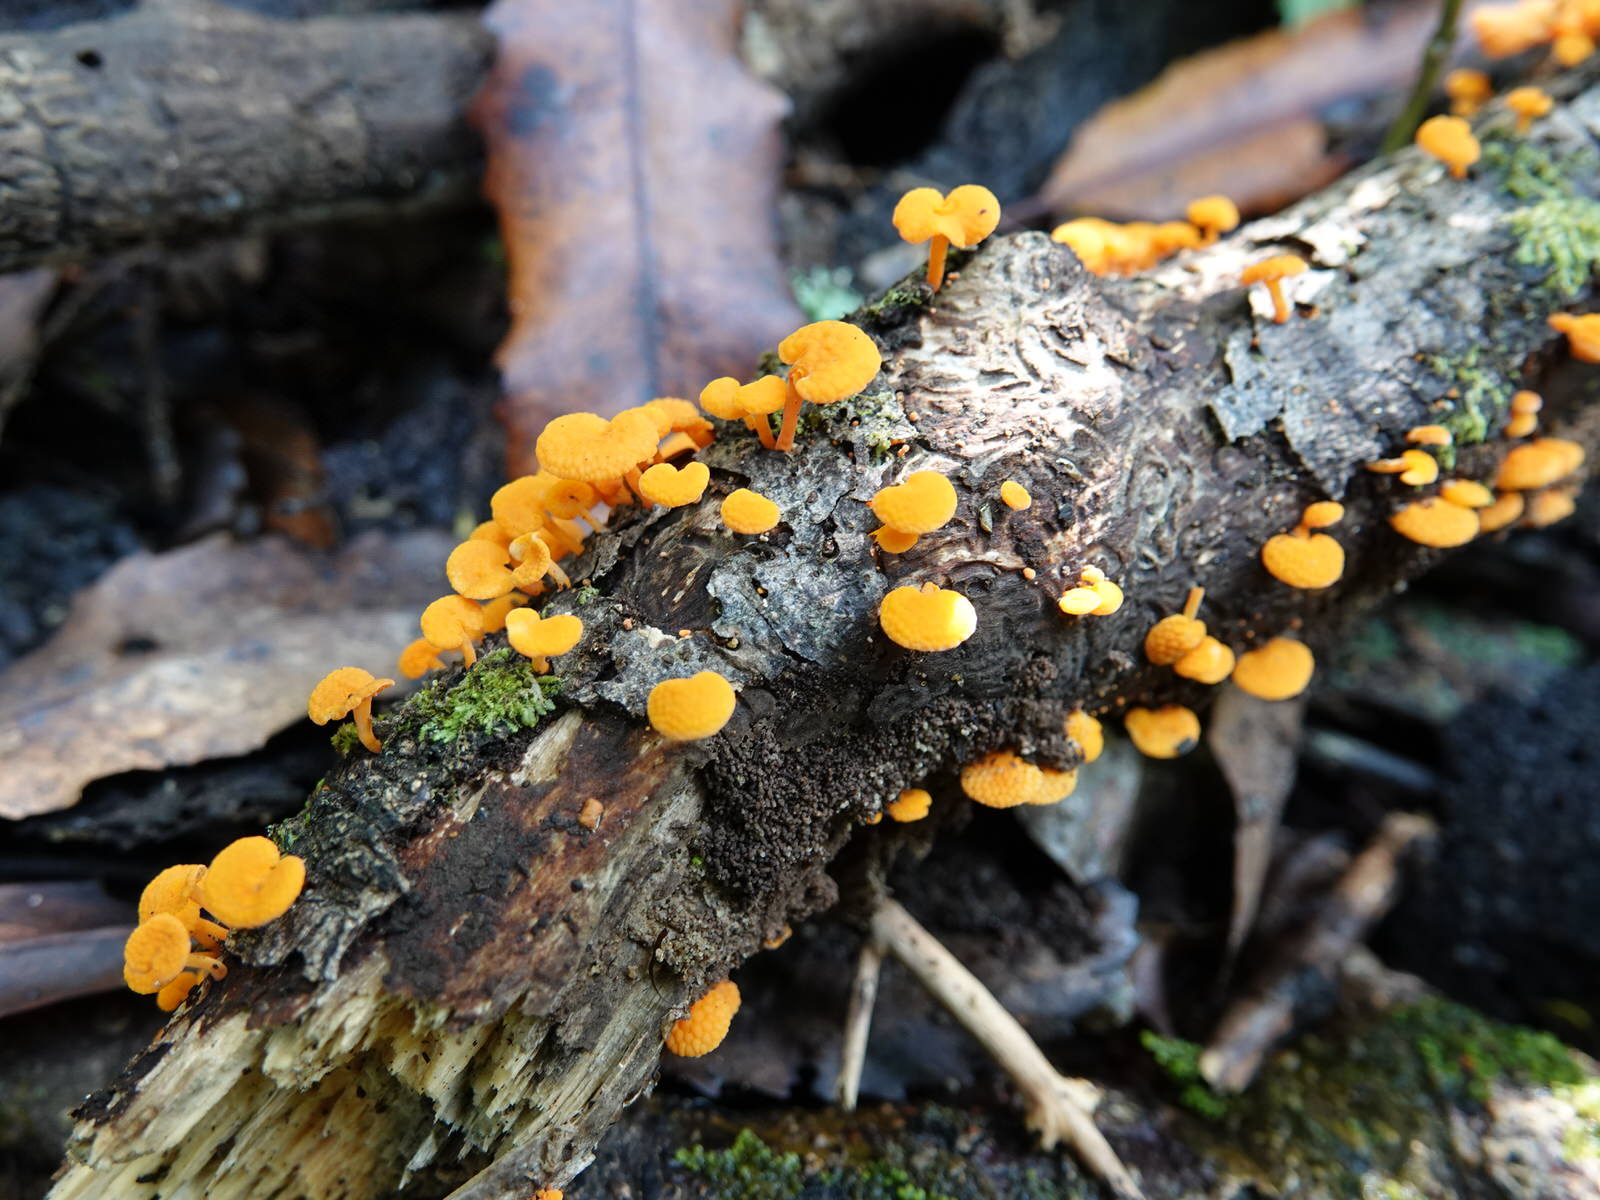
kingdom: Fungi
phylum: Basidiomycota
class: Agaricomycetes
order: Agaricales
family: Mycenaceae
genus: Favolaschia
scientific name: Favolaschia claudopus
